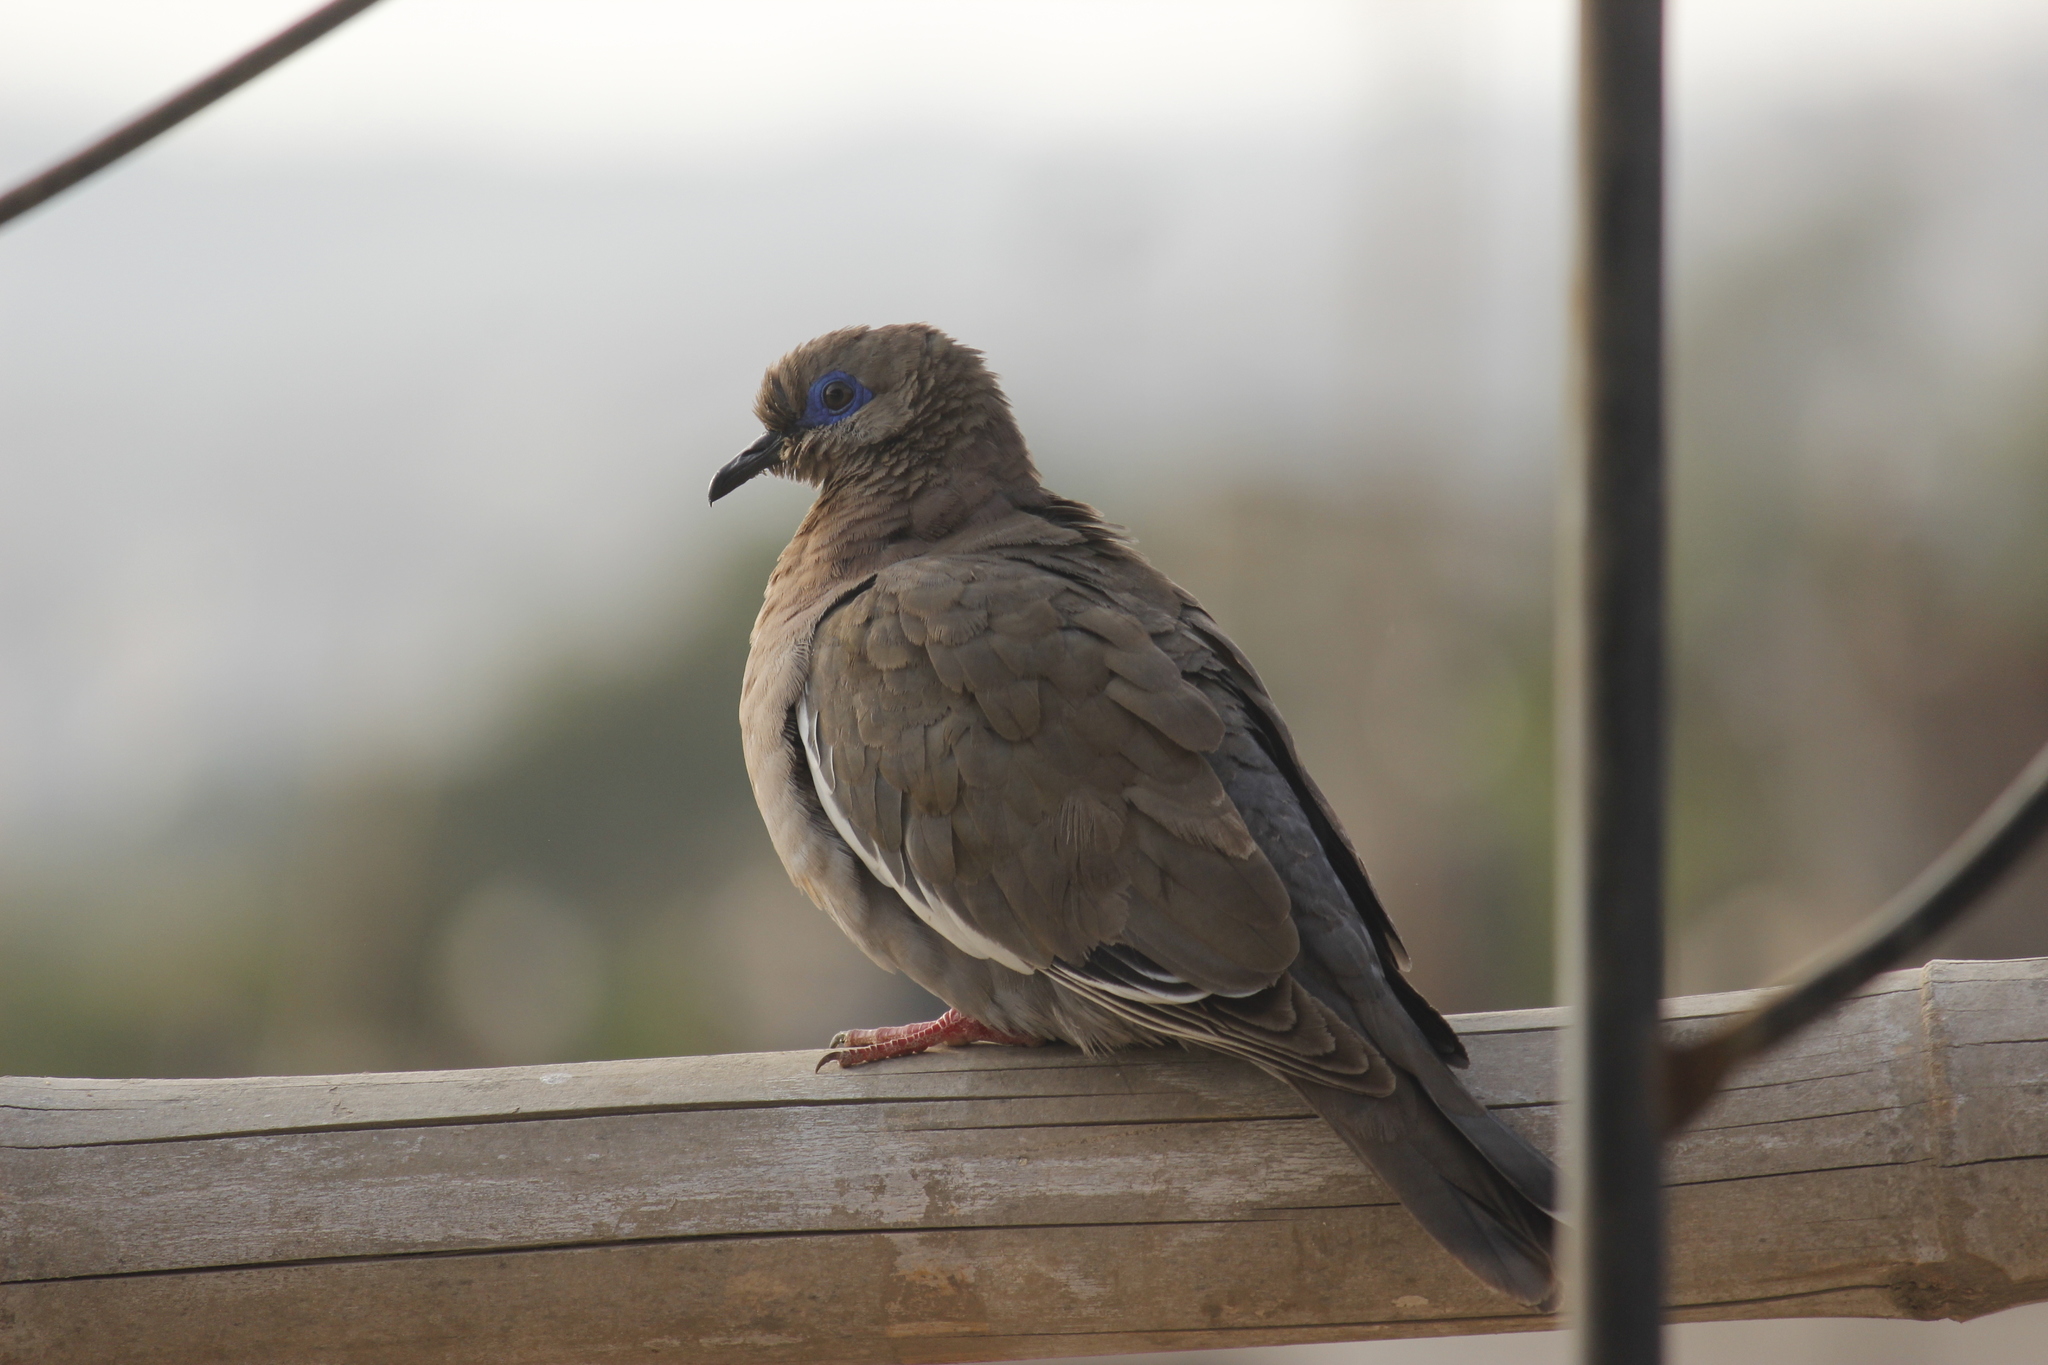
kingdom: Animalia
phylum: Chordata
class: Aves
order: Columbiformes
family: Columbidae
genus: Zenaida
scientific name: Zenaida meloda
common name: West peruvian dove
